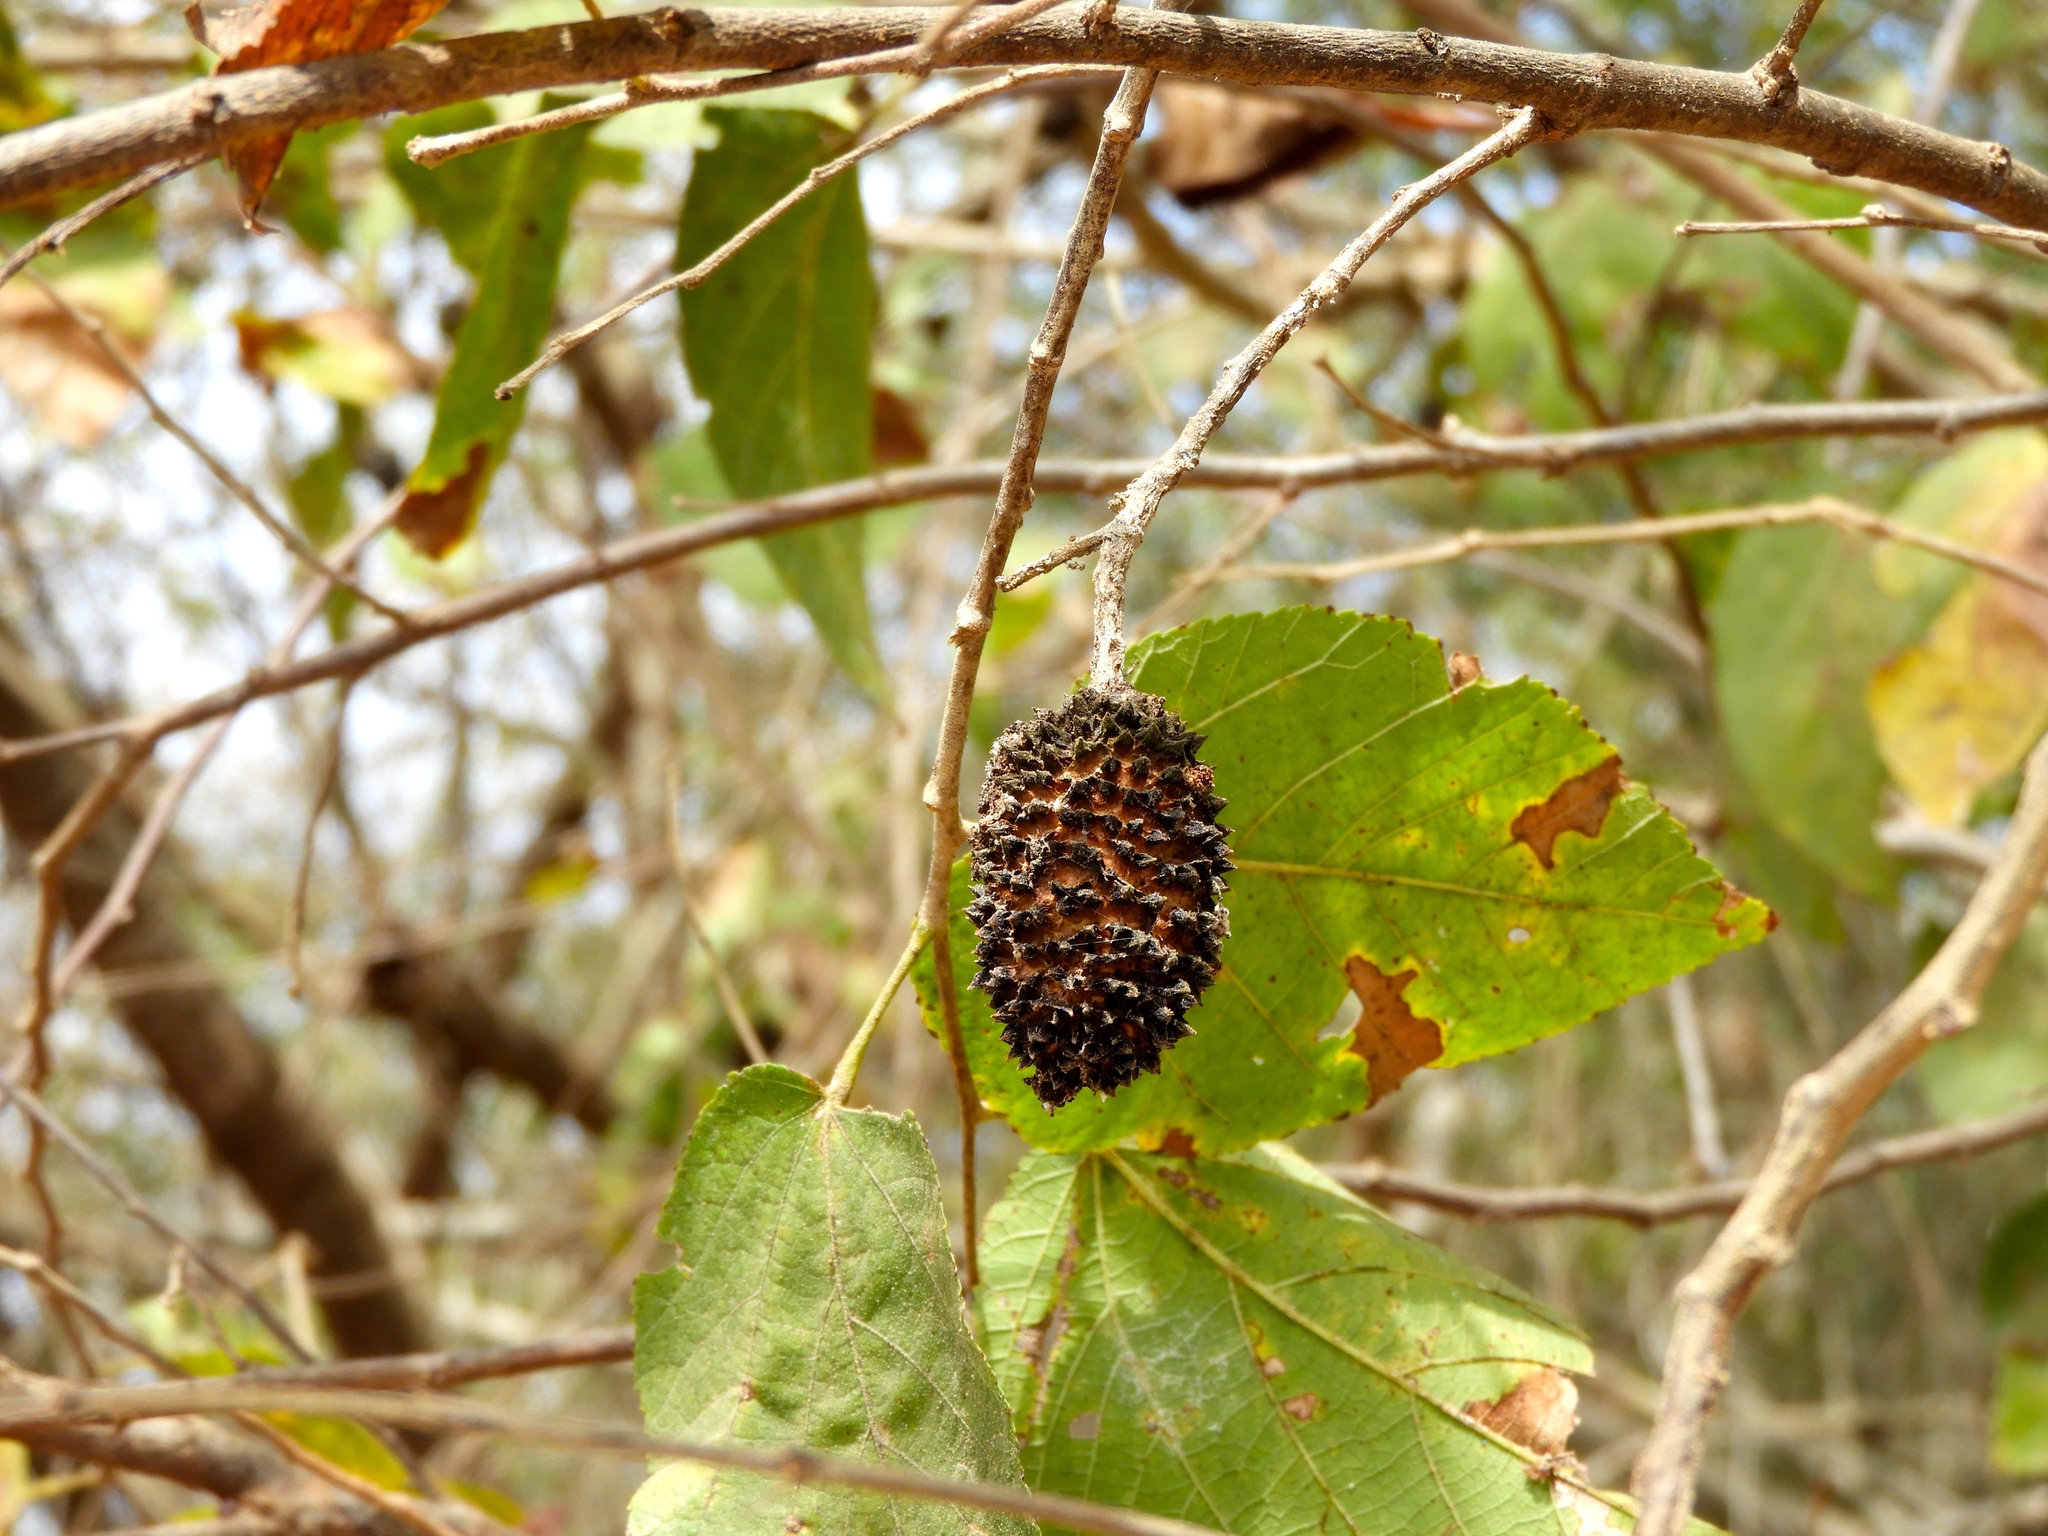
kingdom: Plantae
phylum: Tracheophyta
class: Magnoliopsida
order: Malvales
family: Malvaceae
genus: Guazuma
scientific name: Guazuma ulmifolia
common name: Bastard-cedar
